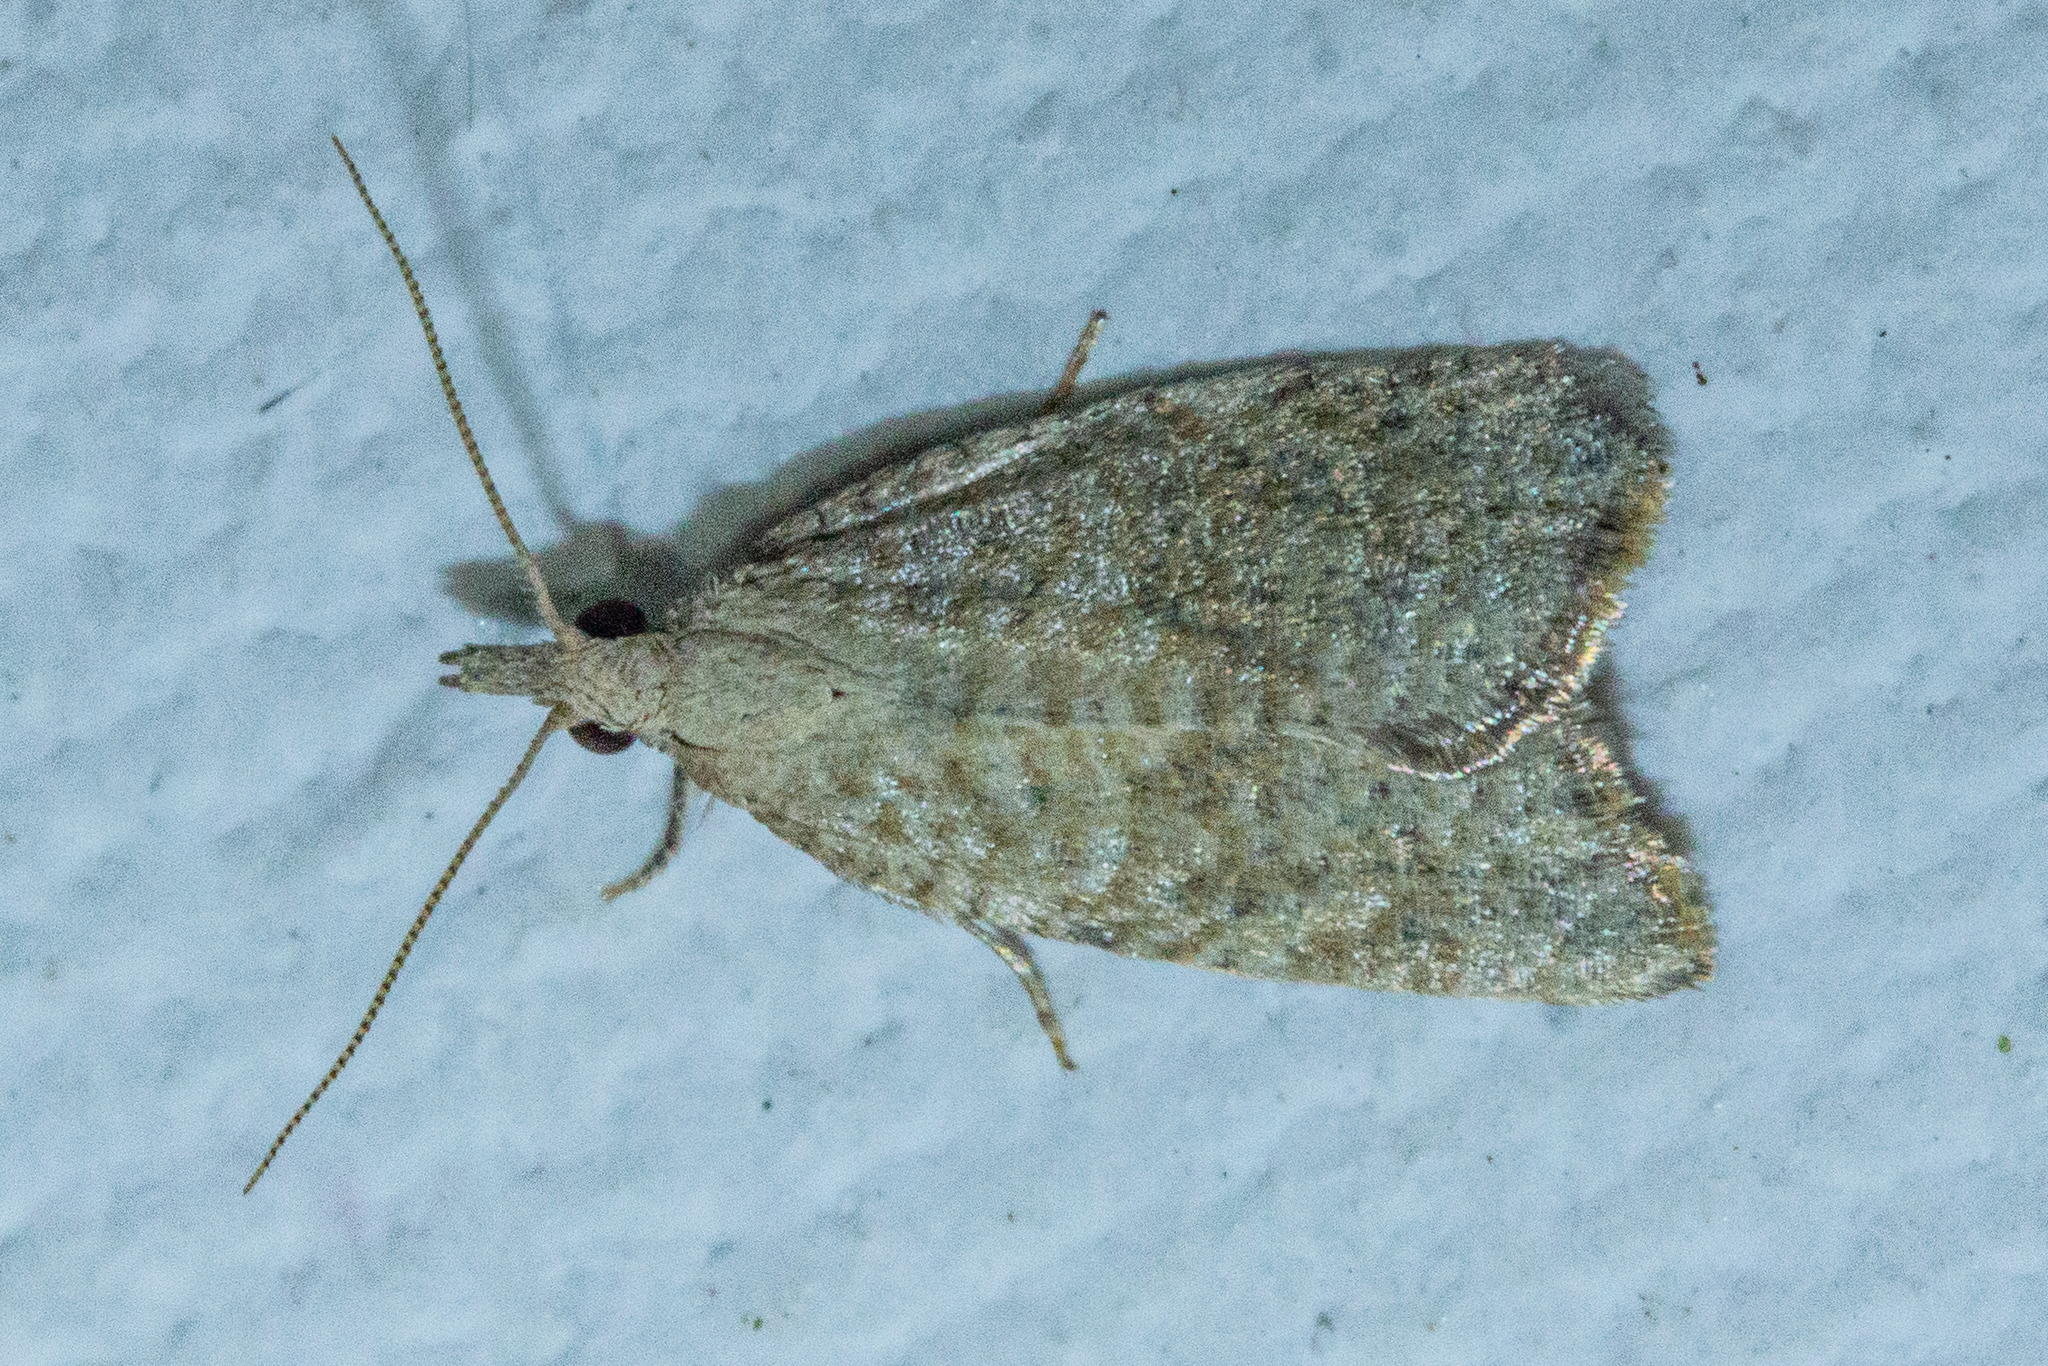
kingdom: Animalia
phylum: Arthropoda
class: Insecta
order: Lepidoptera
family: Tortricidae
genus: Catamacta
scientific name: Catamacta gavisana
